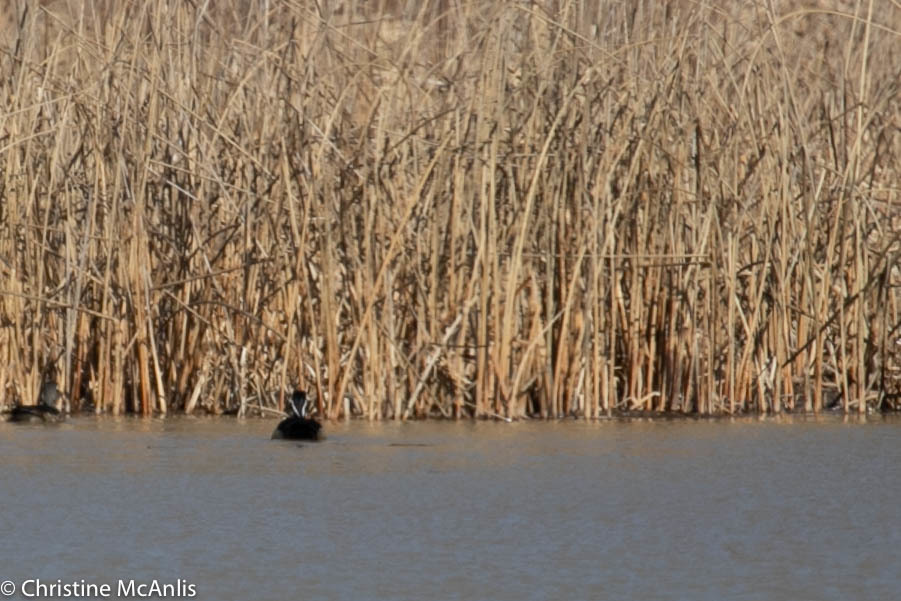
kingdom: Animalia
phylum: Chordata
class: Aves
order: Anseriformes
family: Anatidae
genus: Aix
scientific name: Aix sponsa
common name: Wood duck
